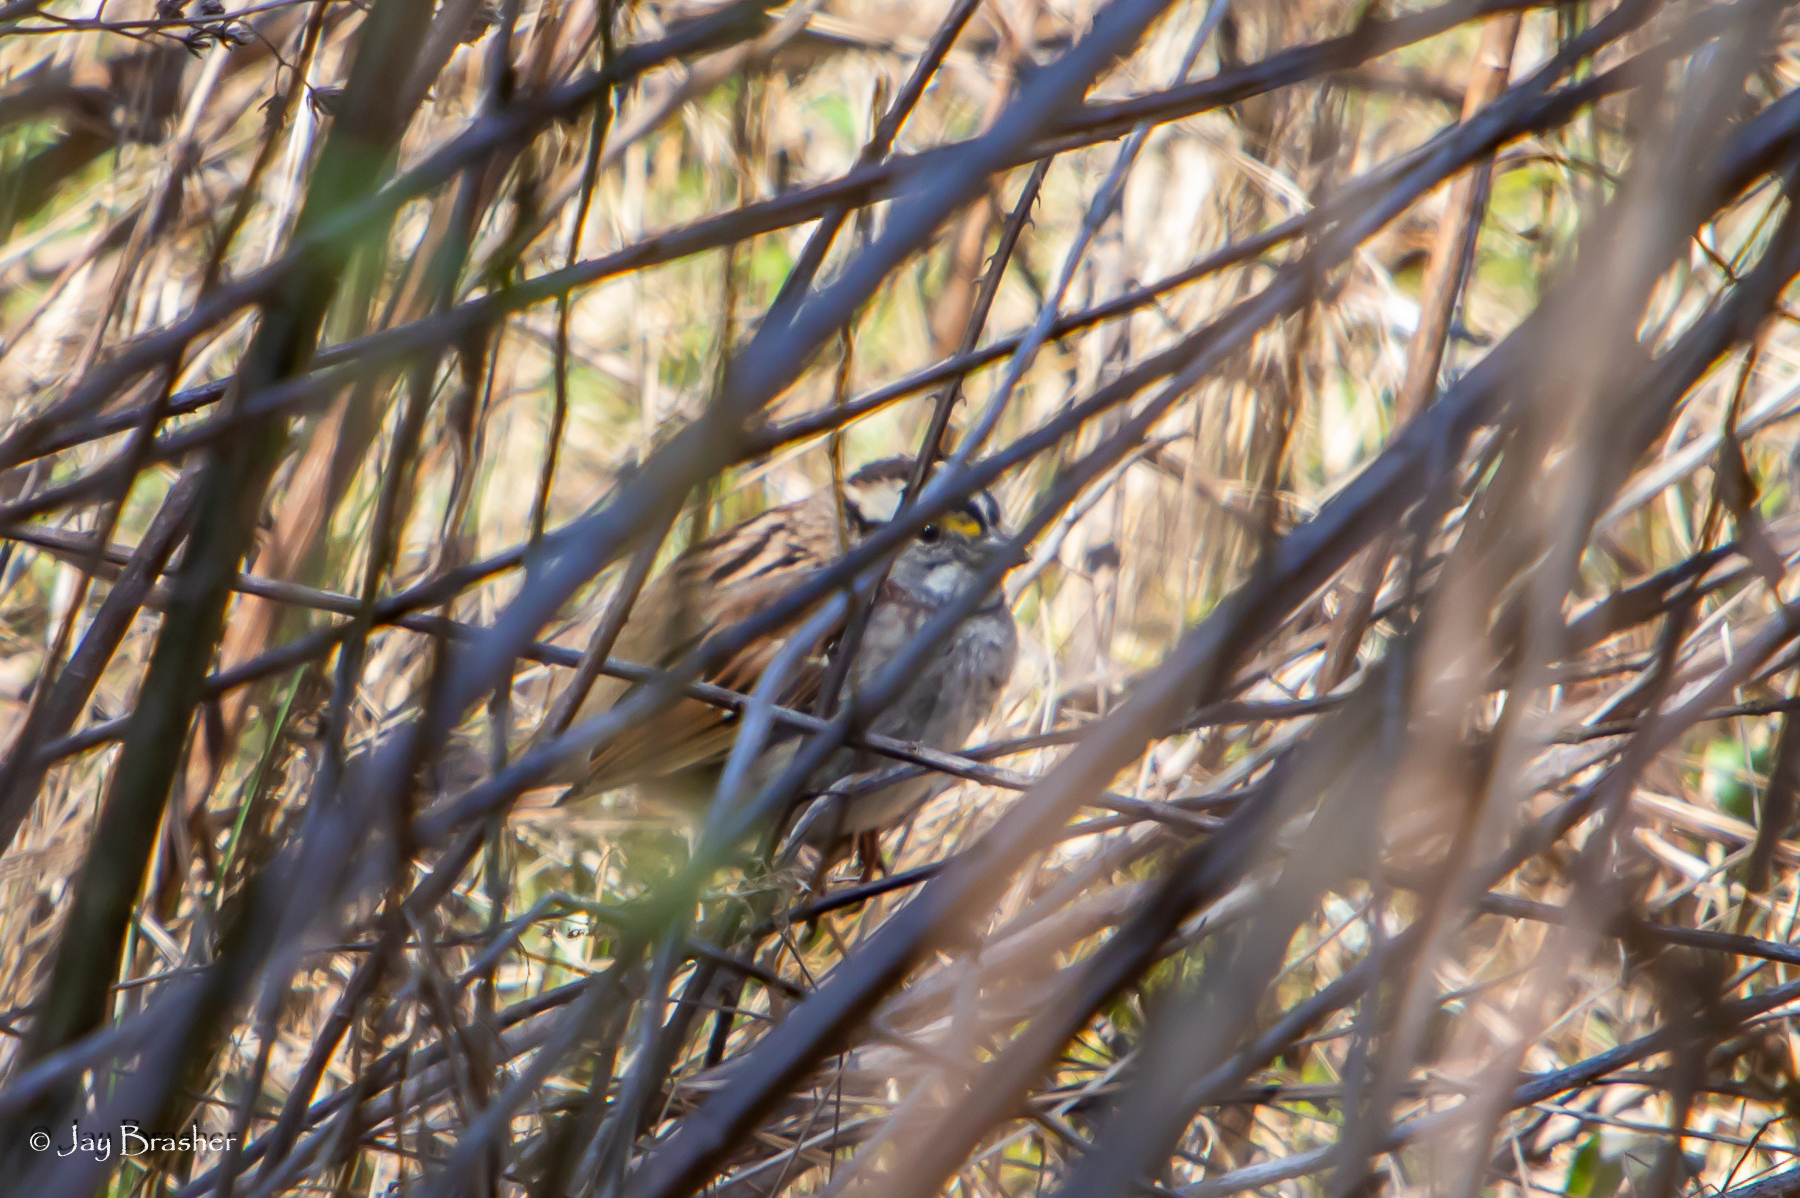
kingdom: Animalia
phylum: Chordata
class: Aves
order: Passeriformes
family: Passerellidae
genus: Zonotrichia
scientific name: Zonotrichia albicollis
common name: White-throated sparrow
